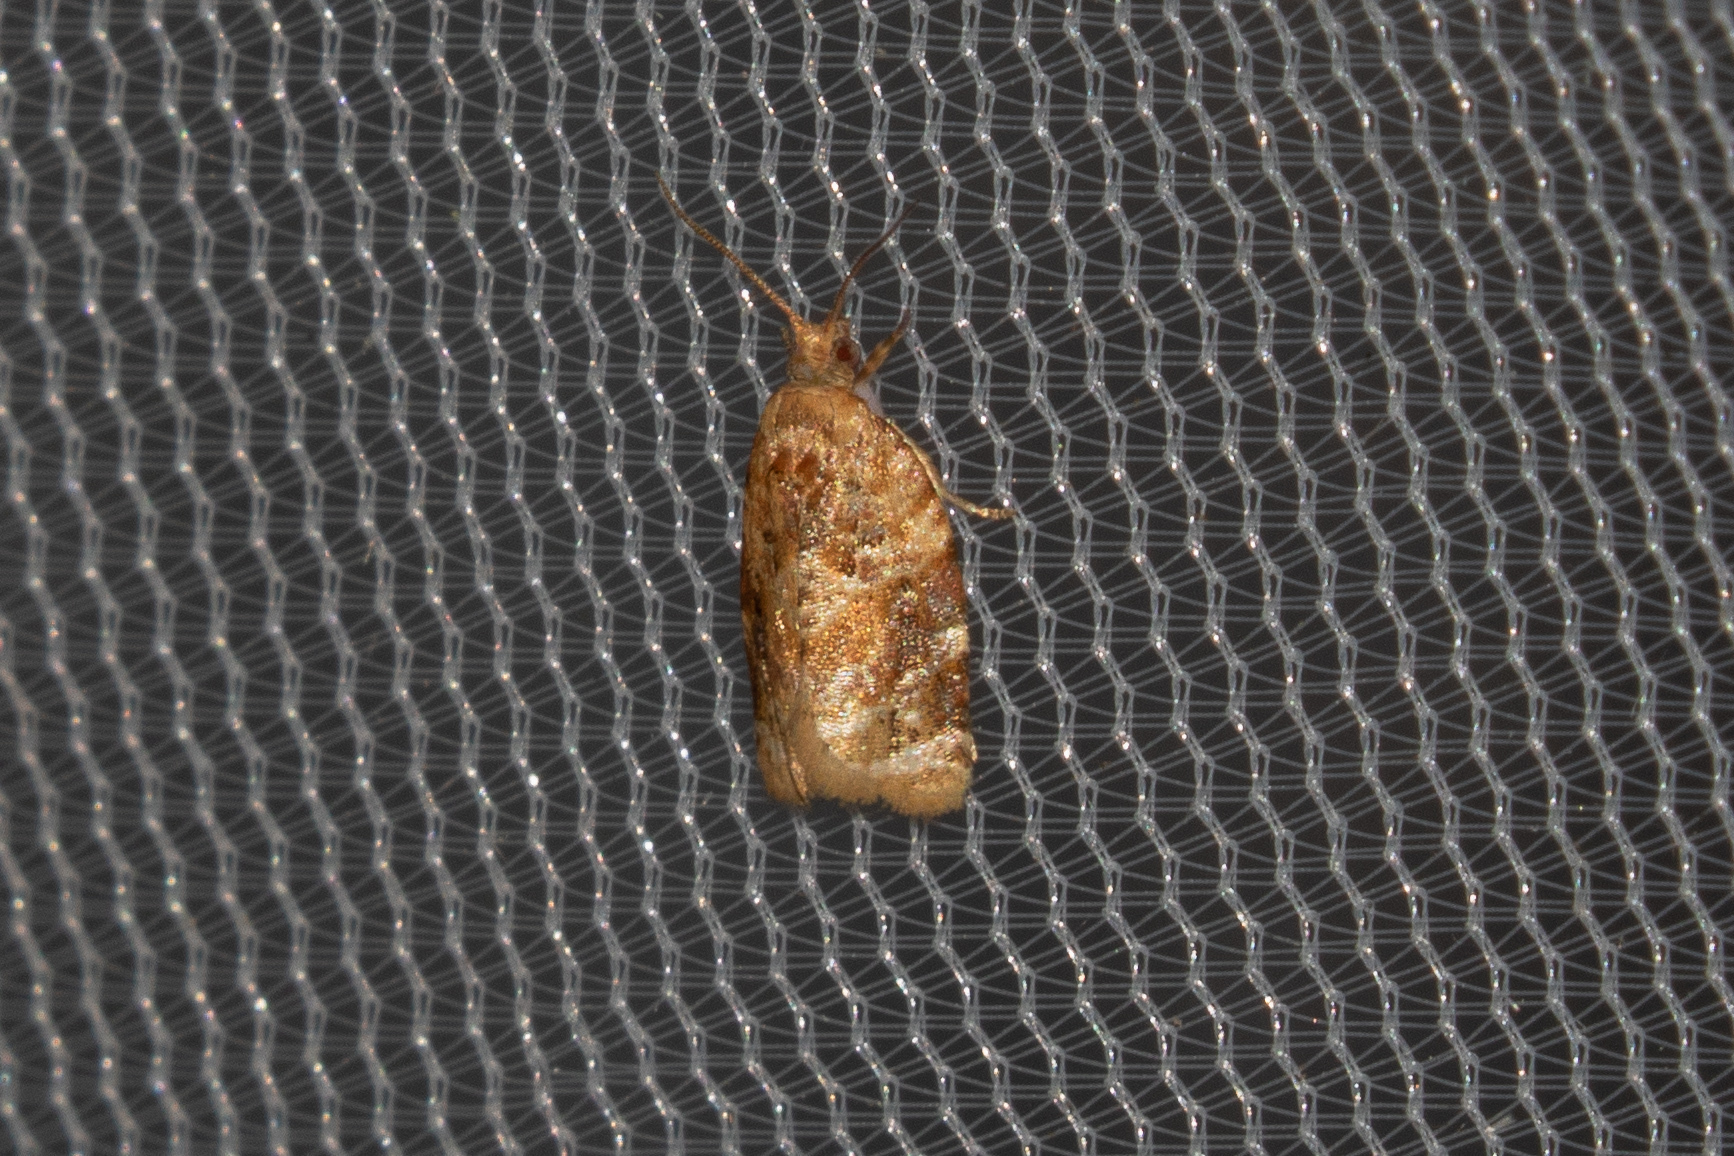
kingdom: Animalia
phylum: Arthropoda
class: Insecta
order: Lepidoptera
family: Tortricidae
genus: Argyrotaenia
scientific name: Argyrotaenia velutinana
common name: Red-banded leafroller moth
